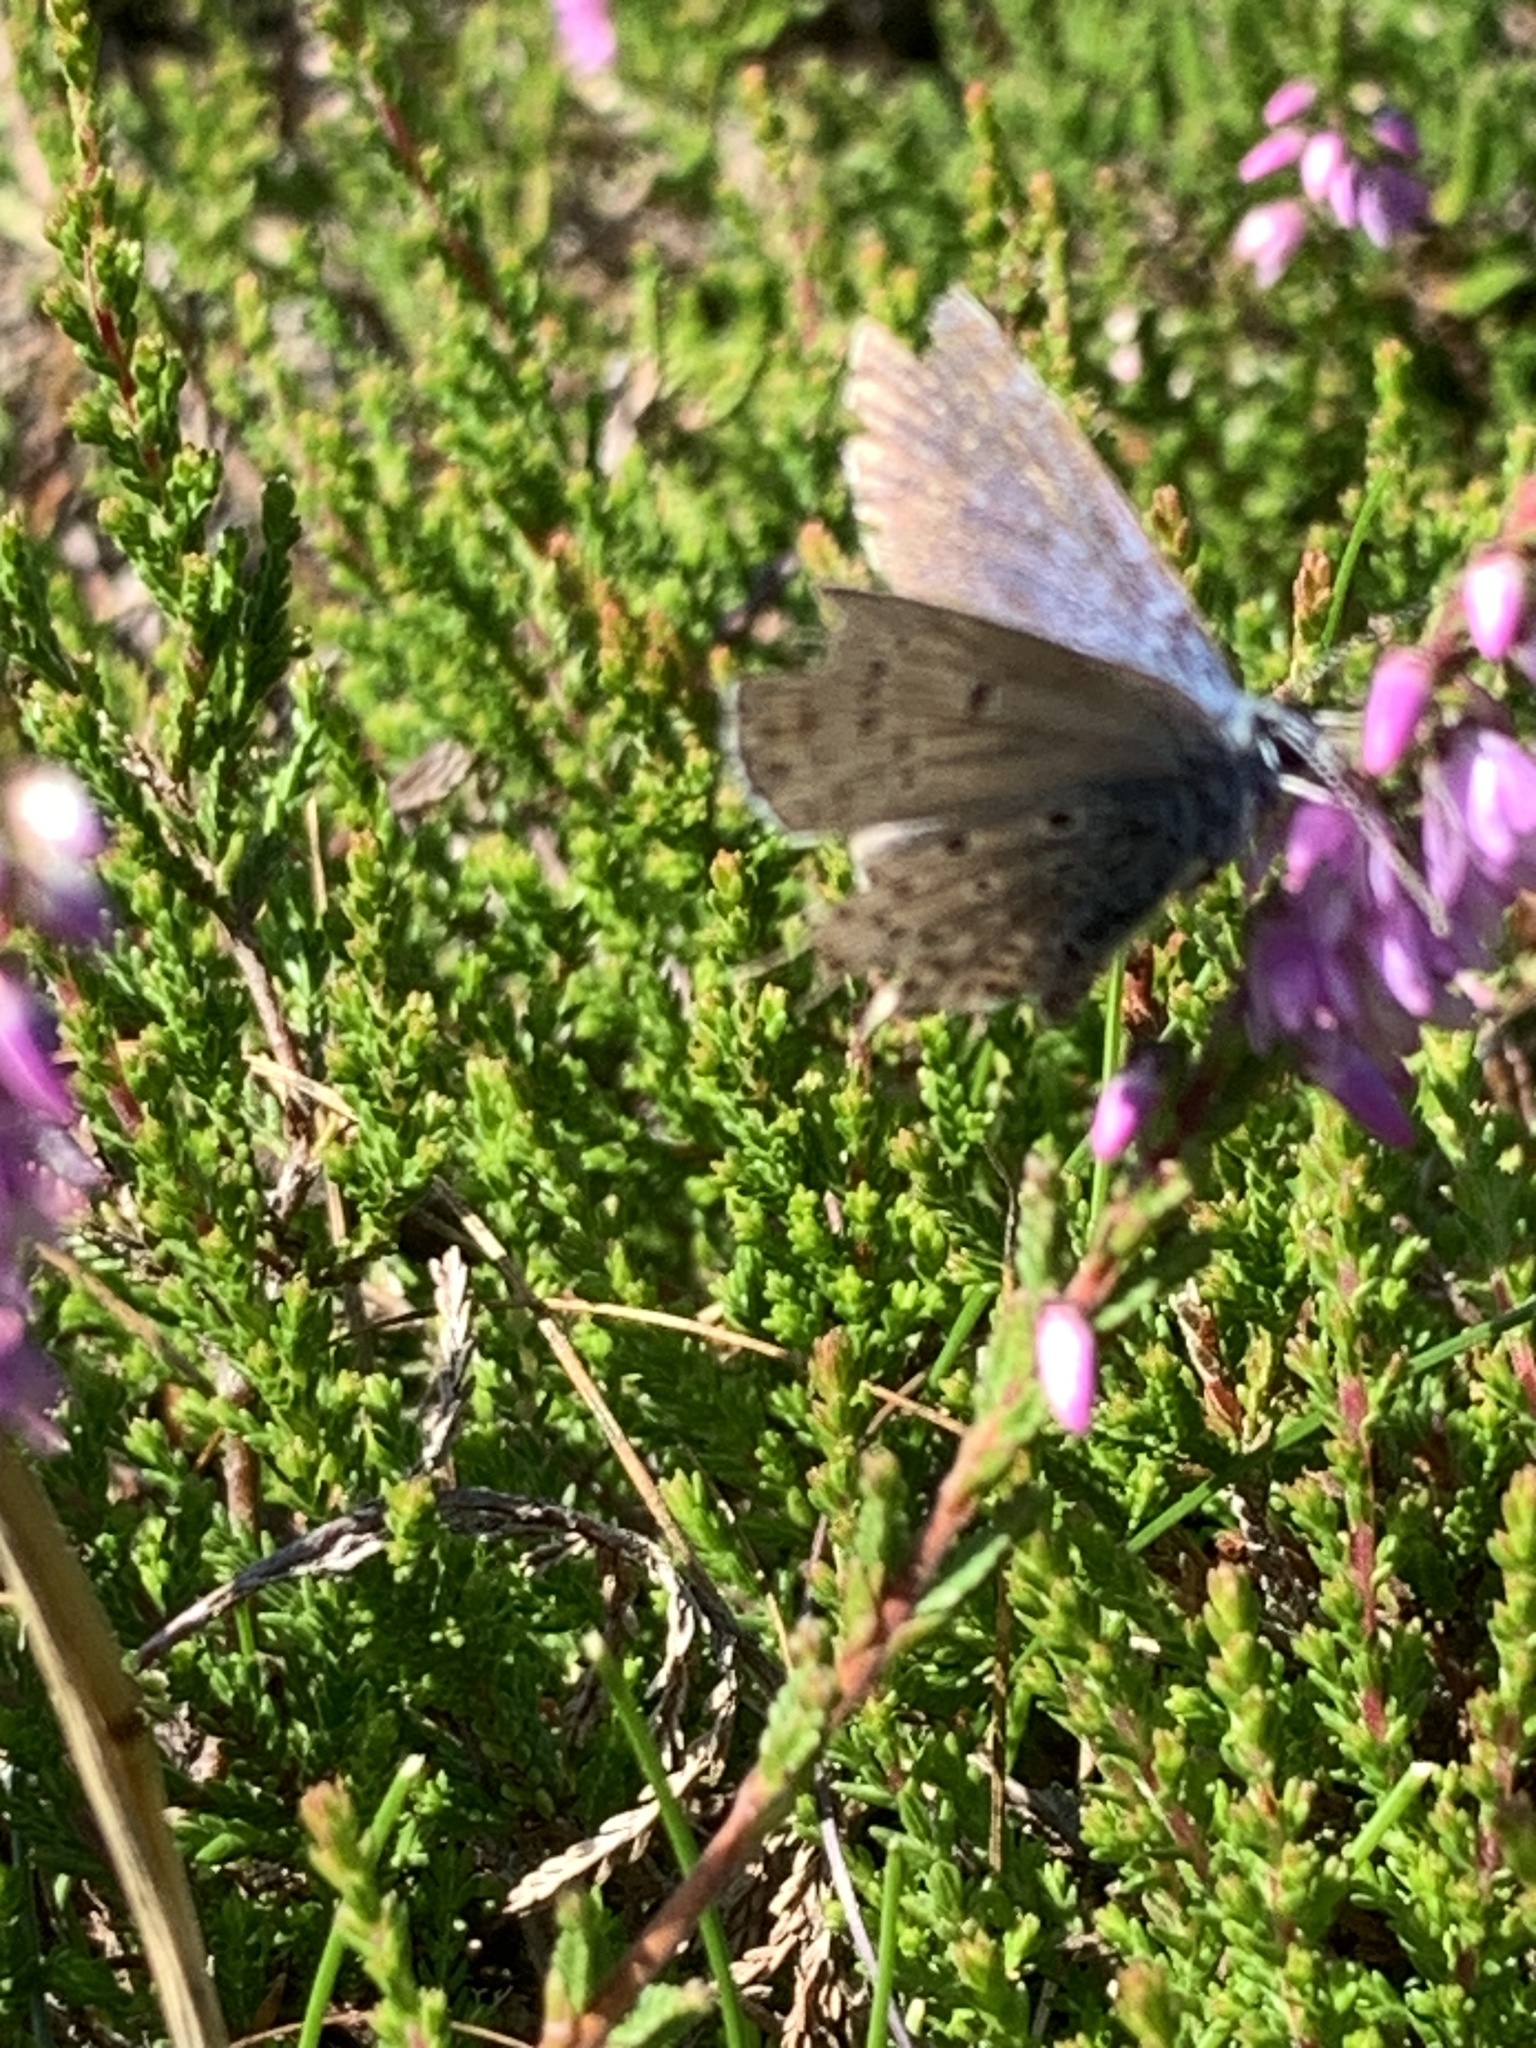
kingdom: Animalia
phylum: Arthropoda
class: Insecta
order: Lepidoptera
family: Lycaenidae
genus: Lycaeides
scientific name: Lycaeides idas
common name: Northern blue
